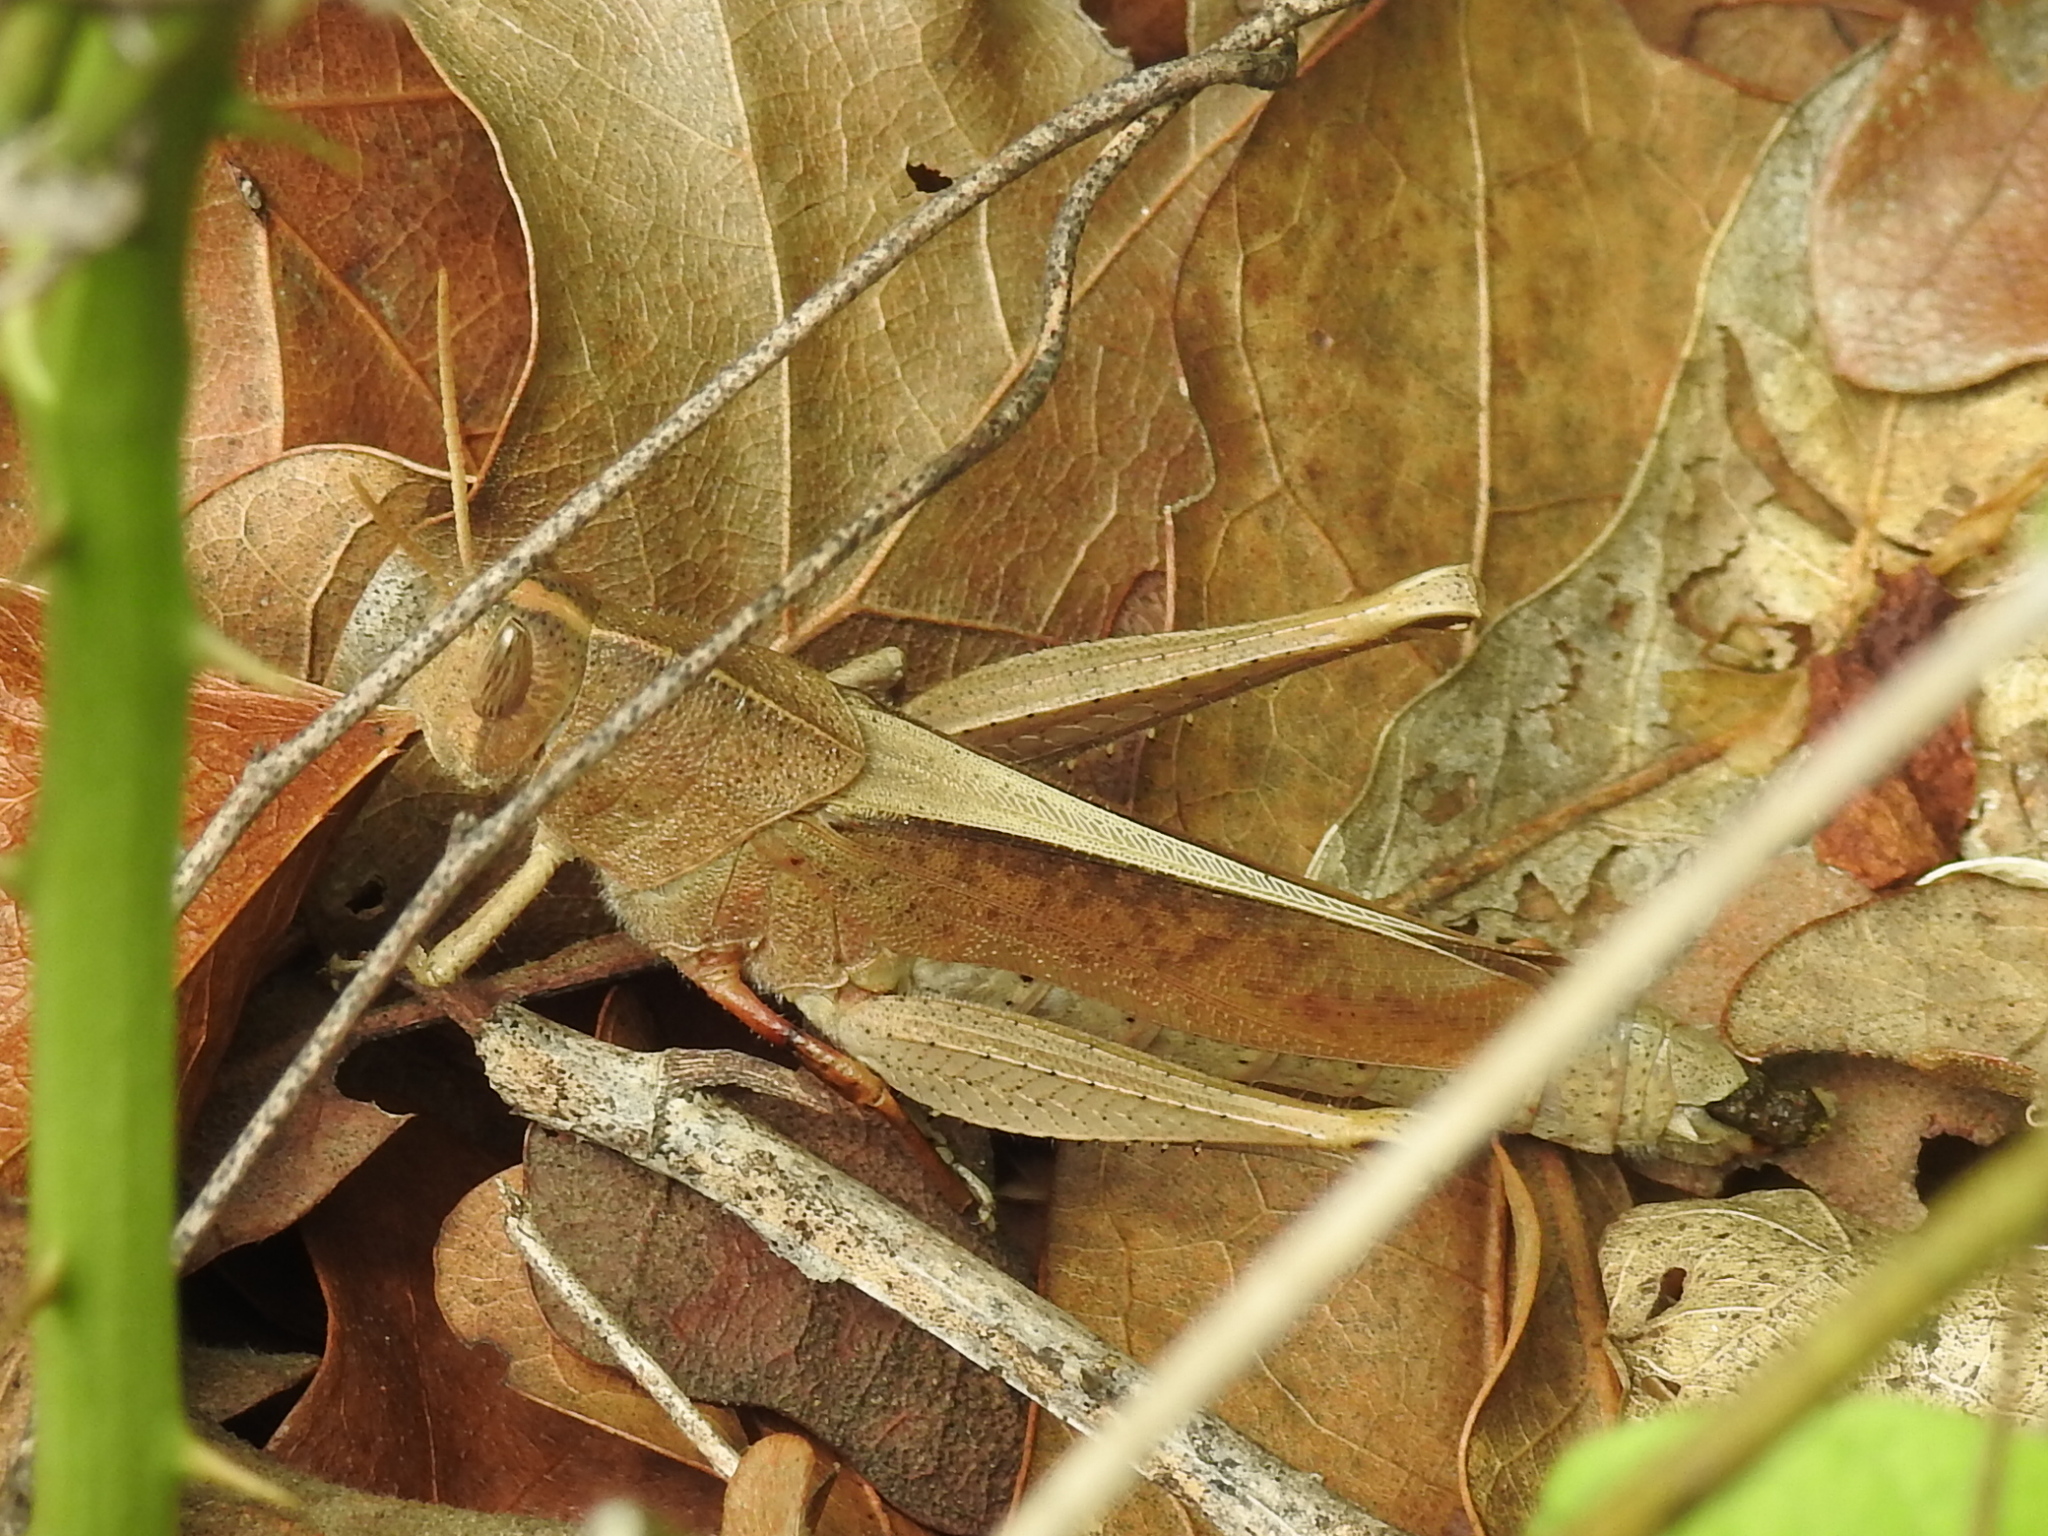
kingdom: Animalia
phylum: Arthropoda
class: Insecta
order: Orthoptera
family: Acrididae
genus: Schistocerca
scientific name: Schistocerca damnifica
